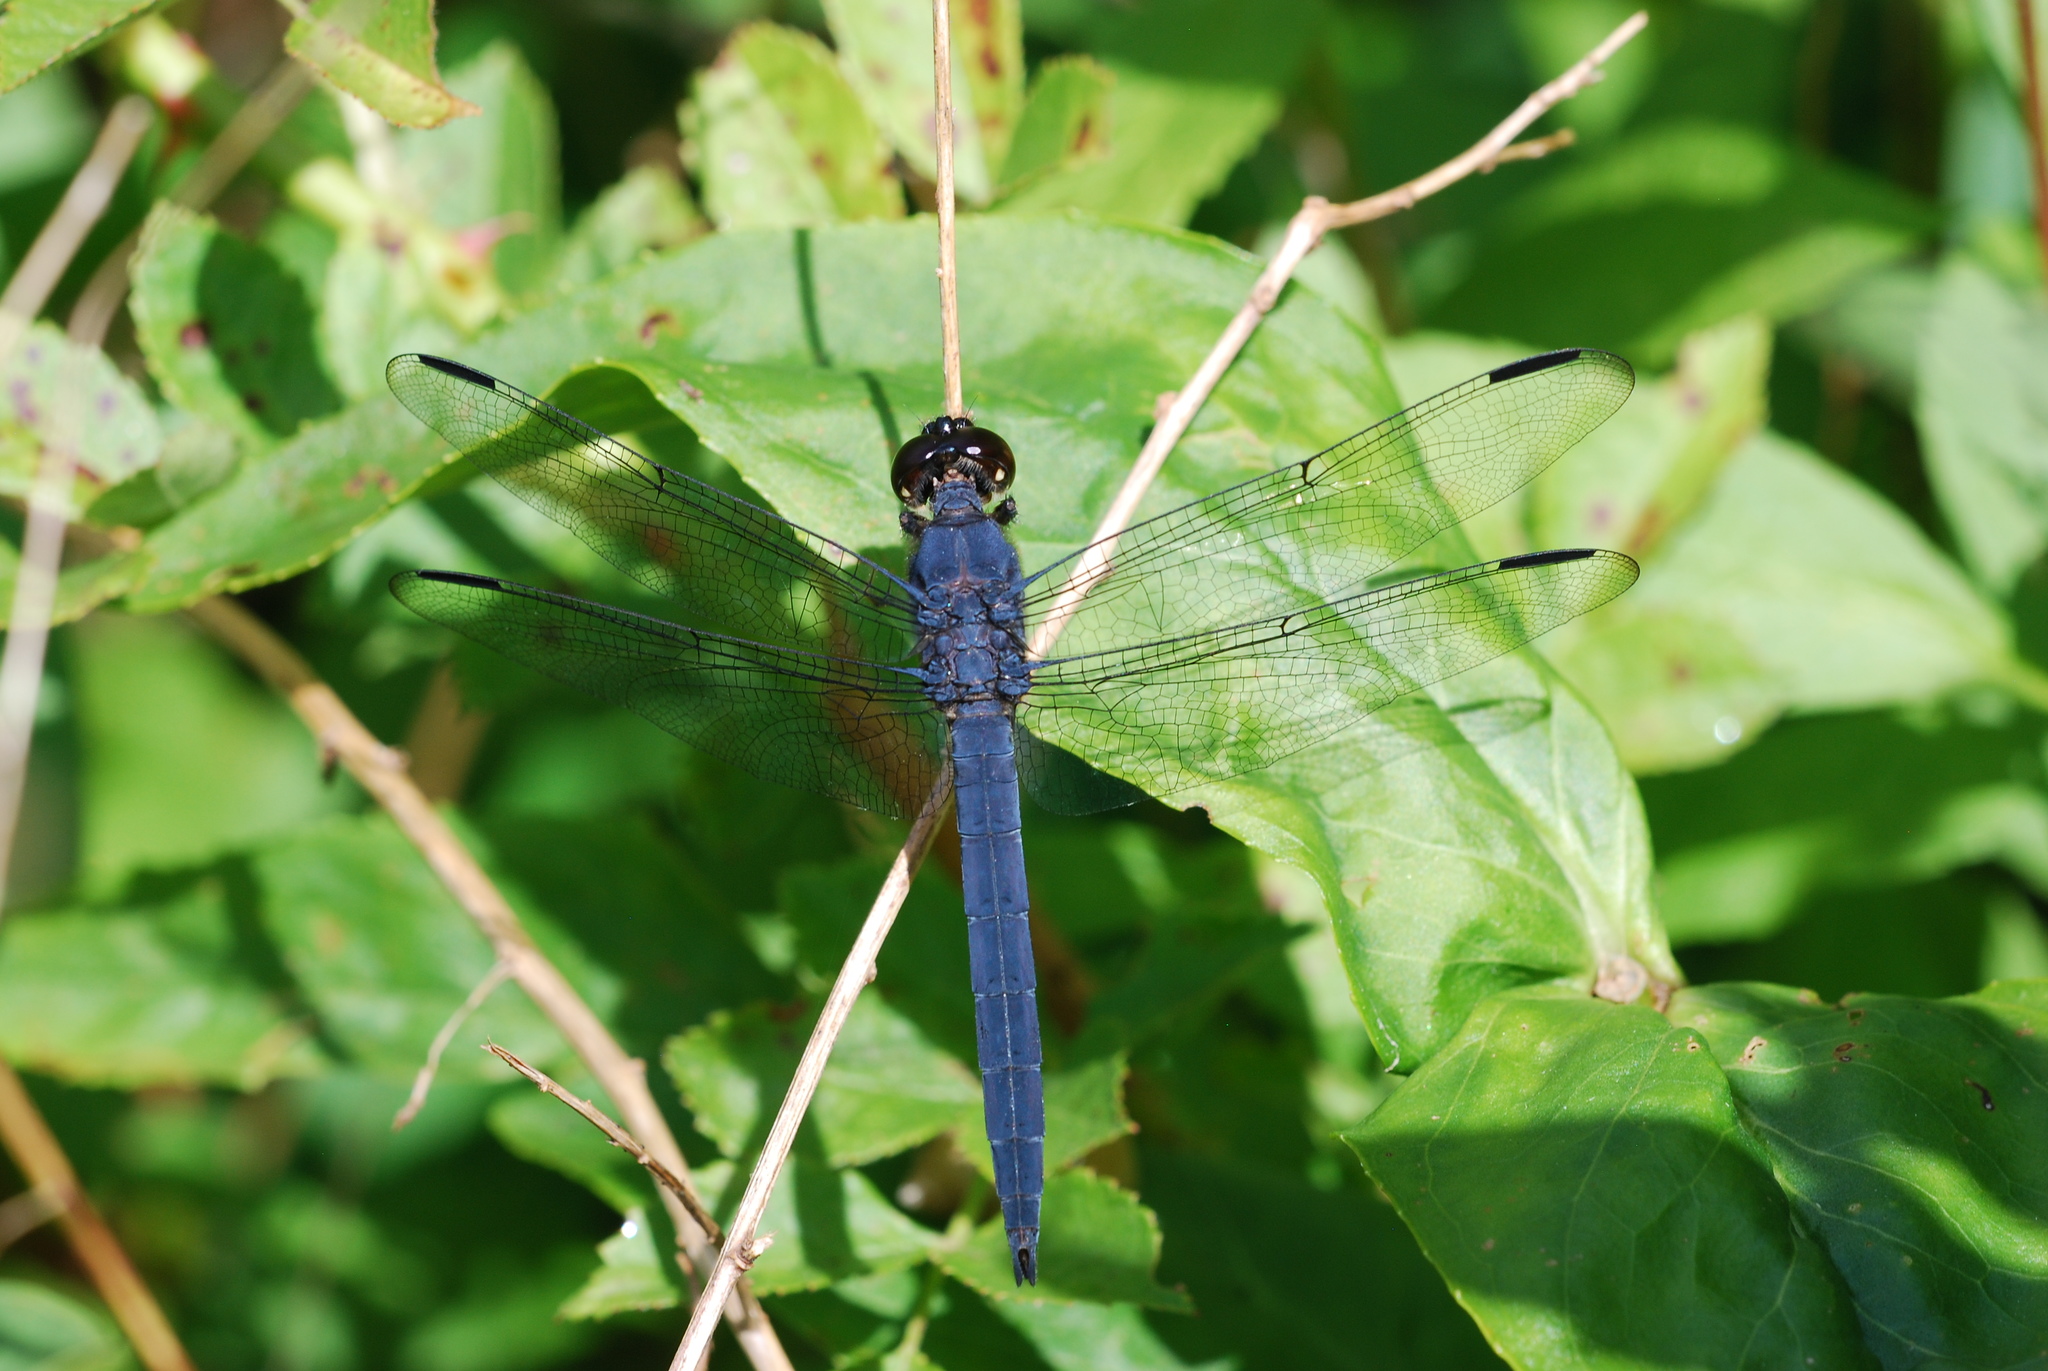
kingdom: Animalia
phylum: Arthropoda
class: Insecta
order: Odonata
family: Libellulidae
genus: Libellula
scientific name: Libellula incesta
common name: Slaty skimmer
